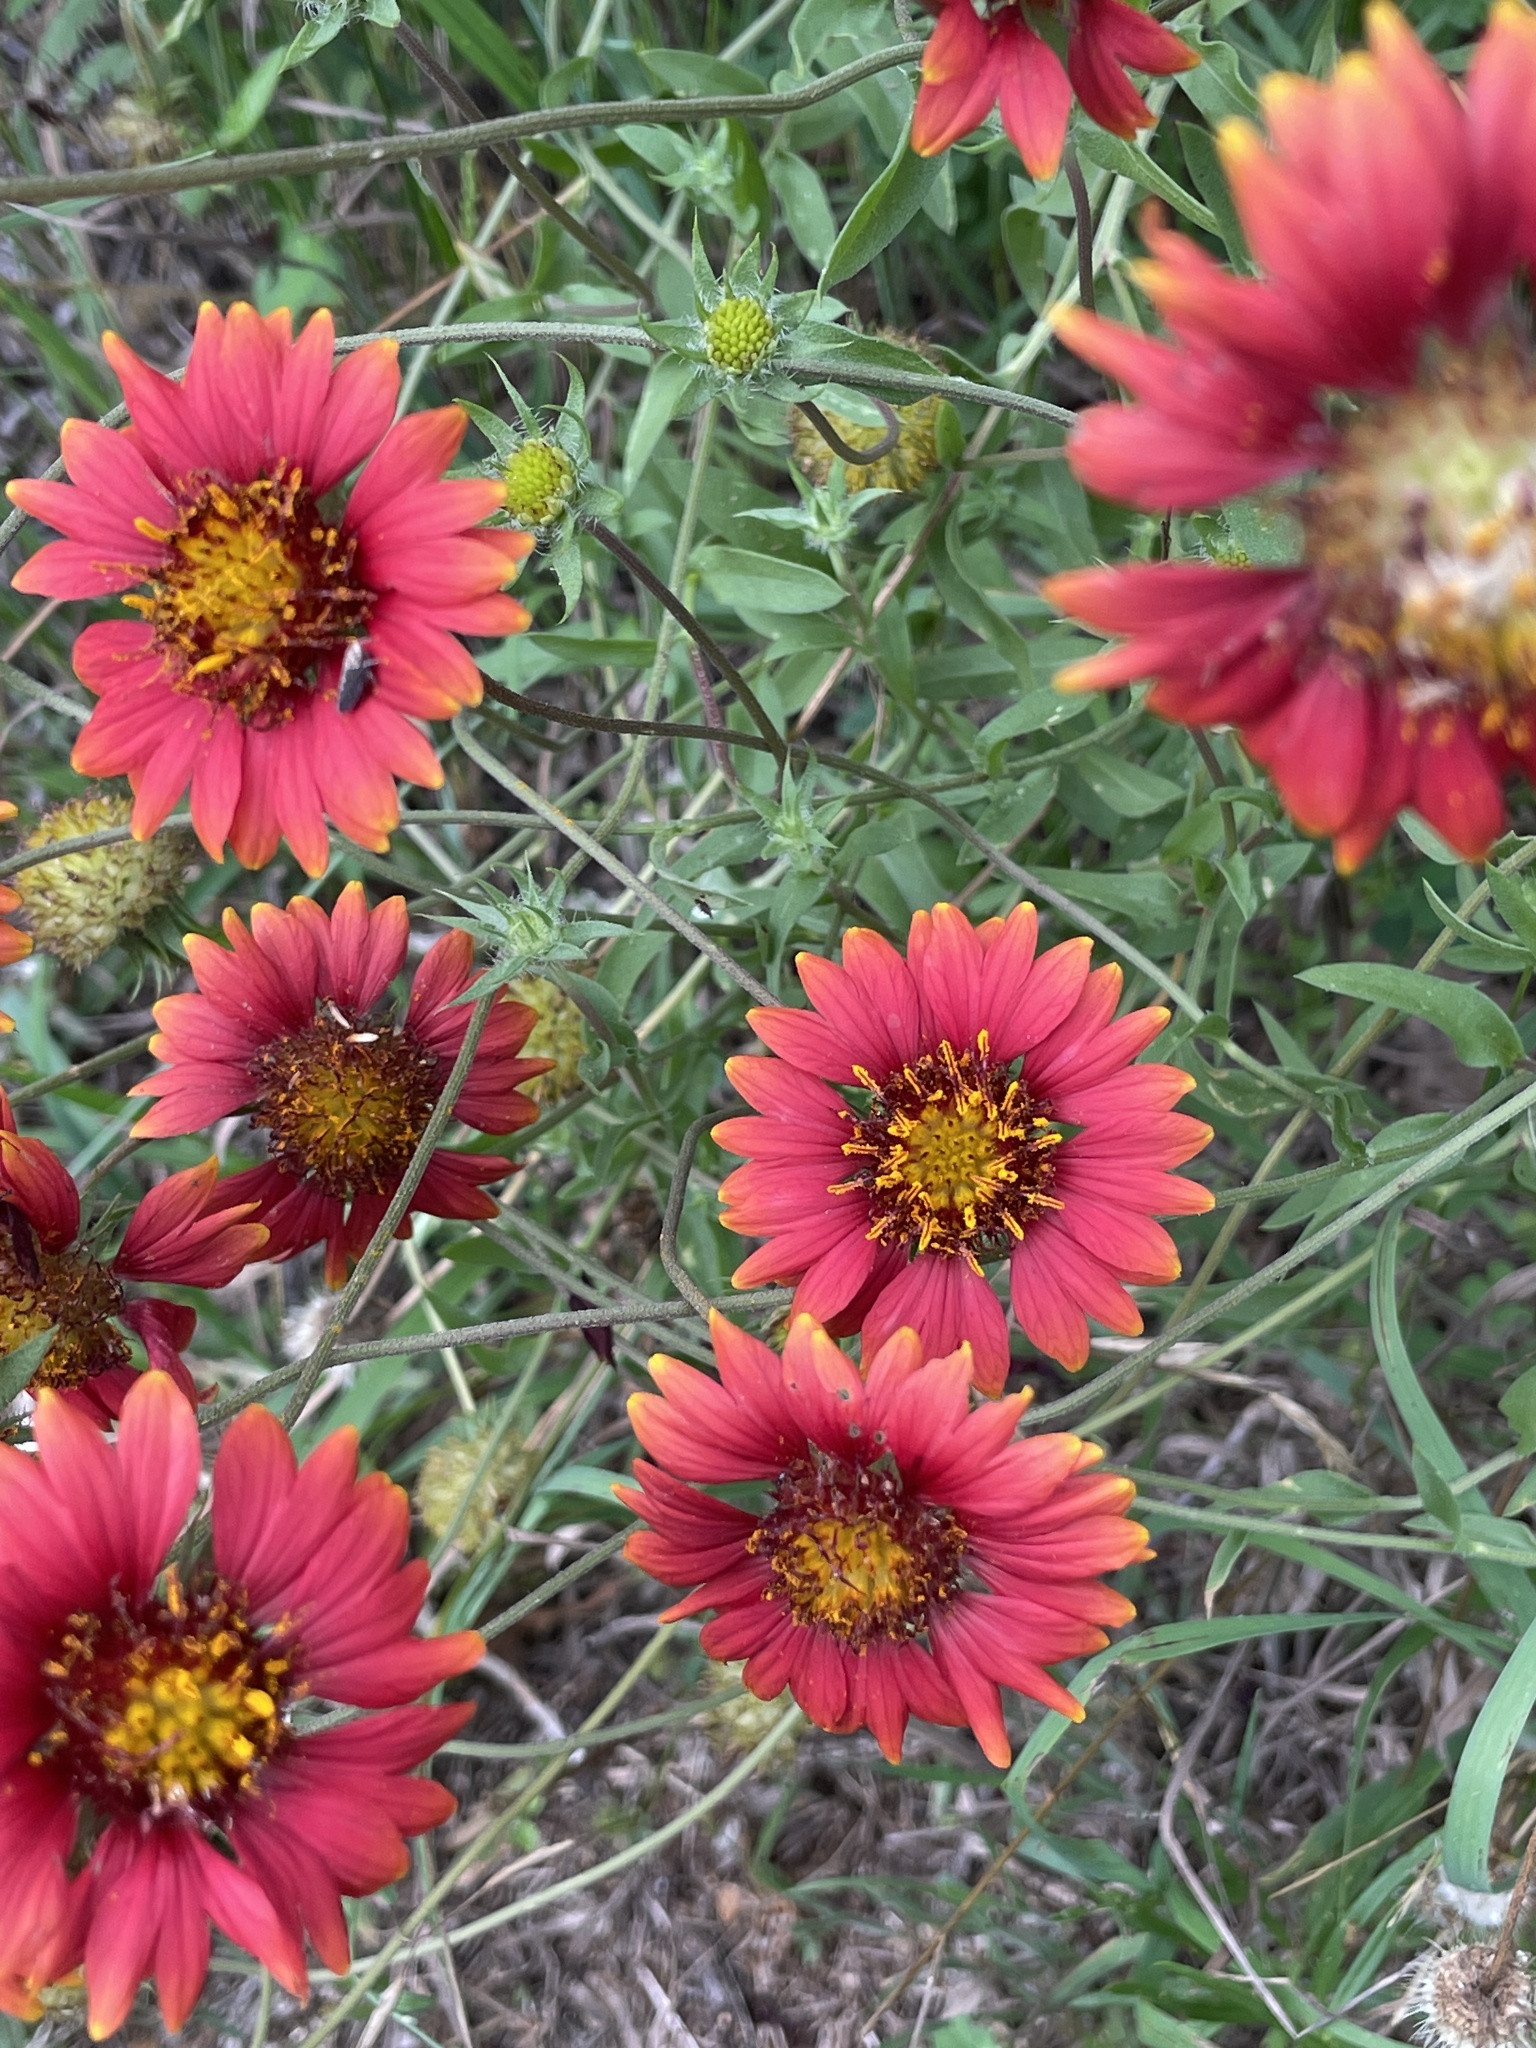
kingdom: Plantae
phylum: Tracheophyta
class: Magnoliopsida
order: Asterales
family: Asteraceae
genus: Gaillardia
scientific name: Gaillardia amblyodon
